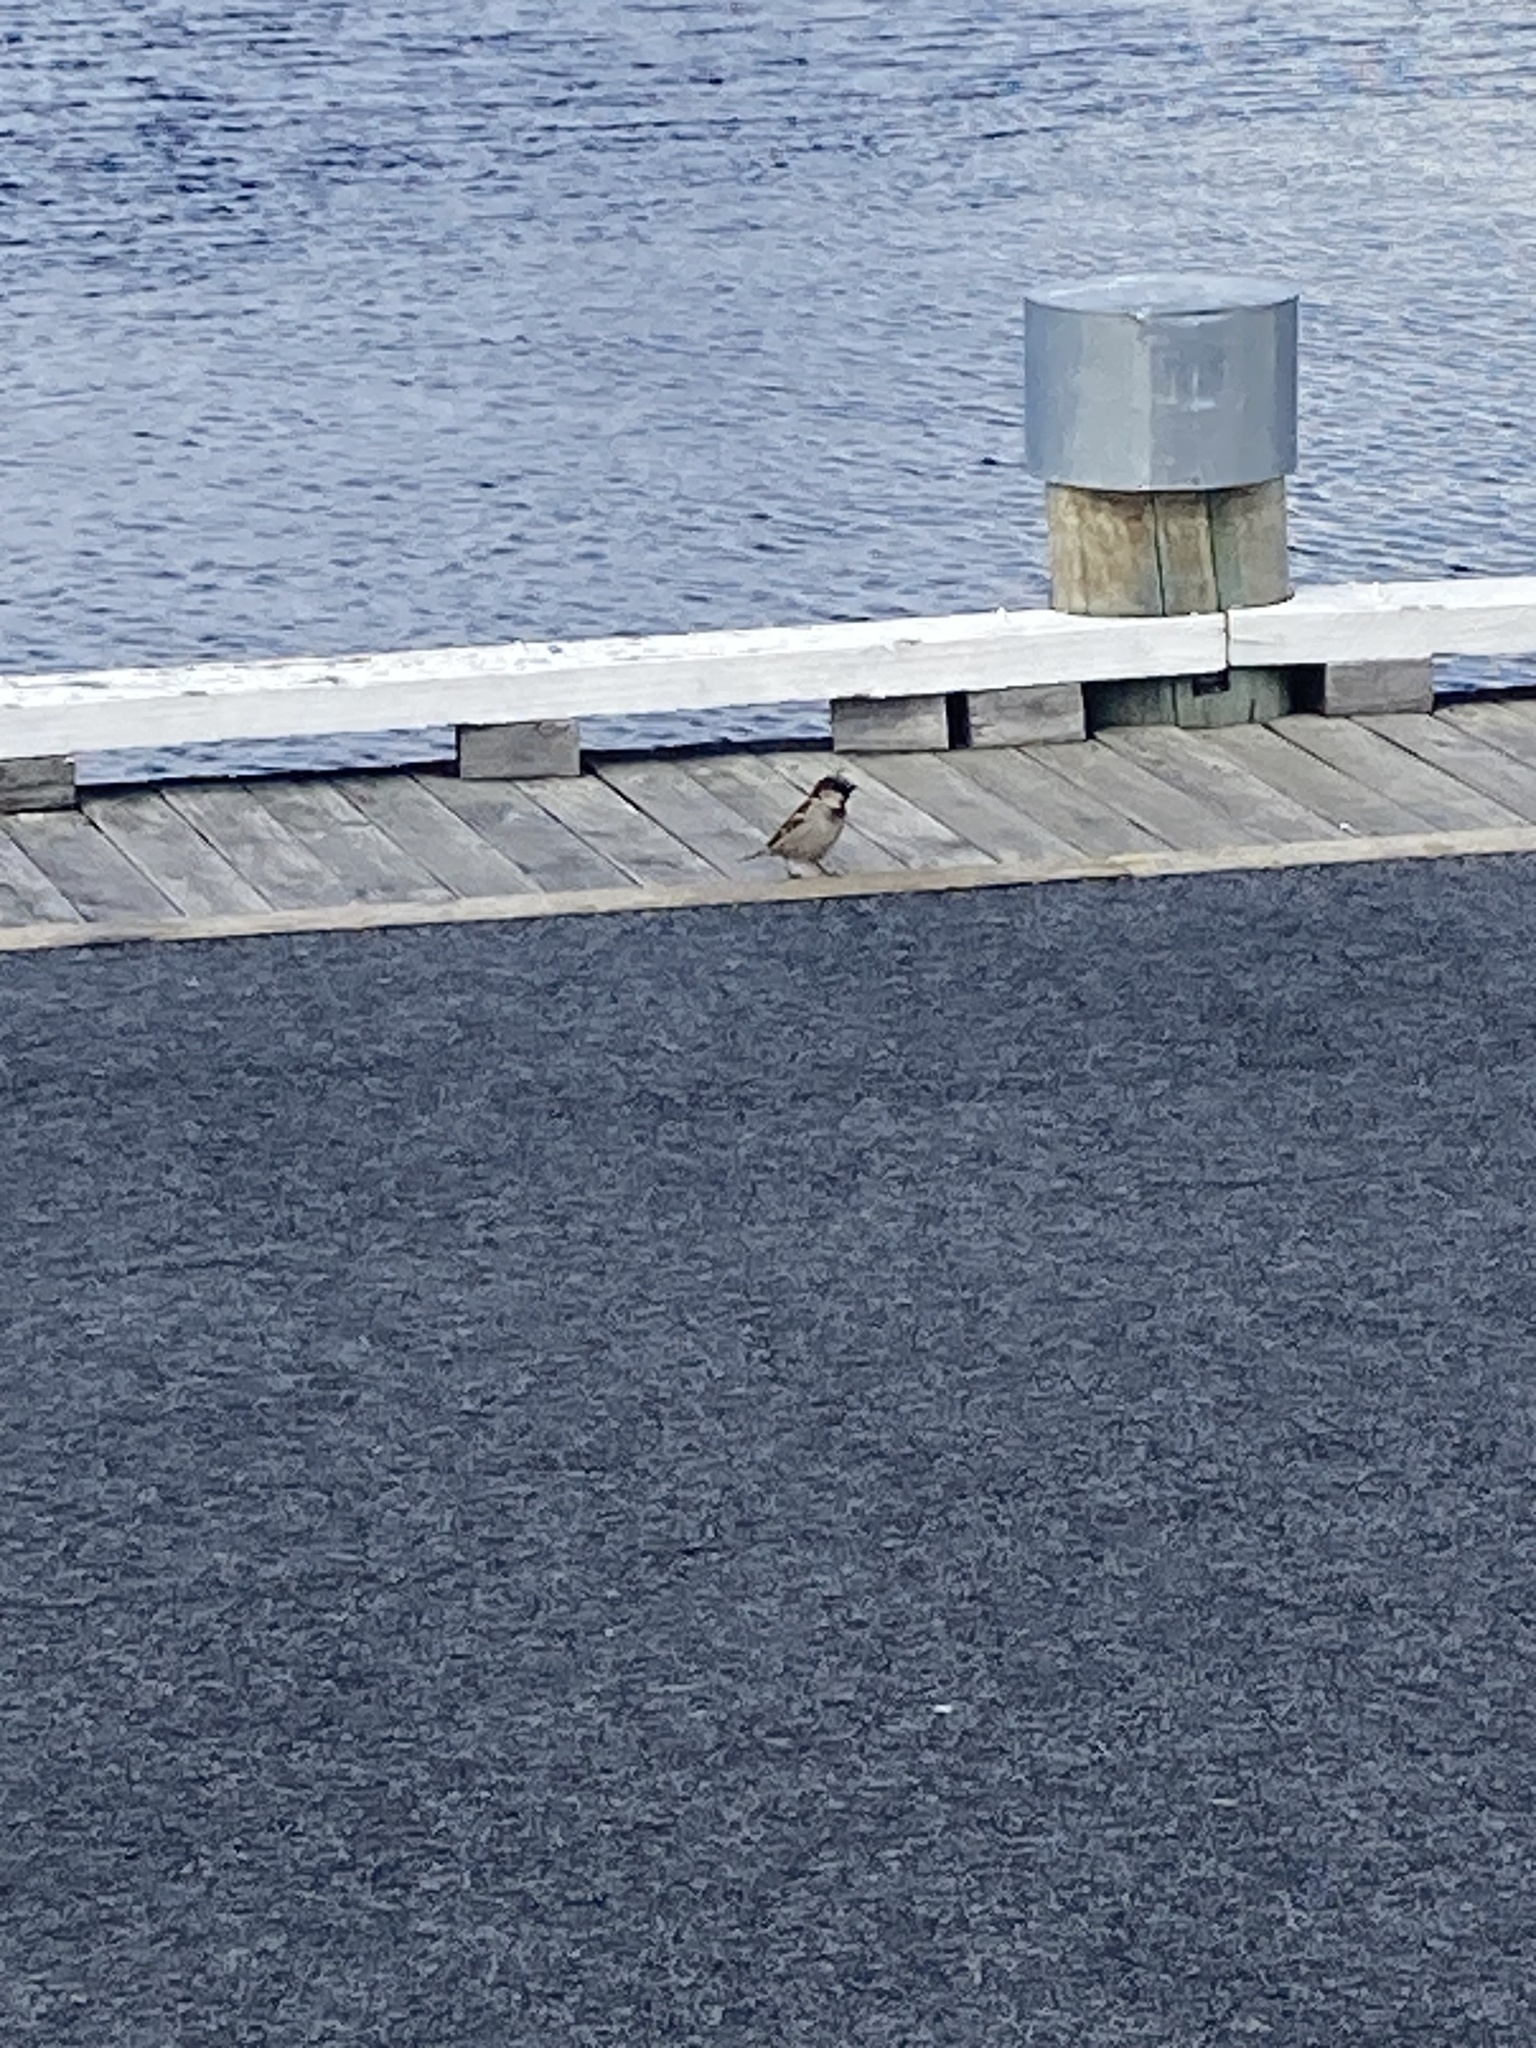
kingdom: Animalia
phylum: Chordata
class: Aves
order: Passeriformes
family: Passeridae
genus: Passer
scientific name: Passer domesticus
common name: House sparrow
